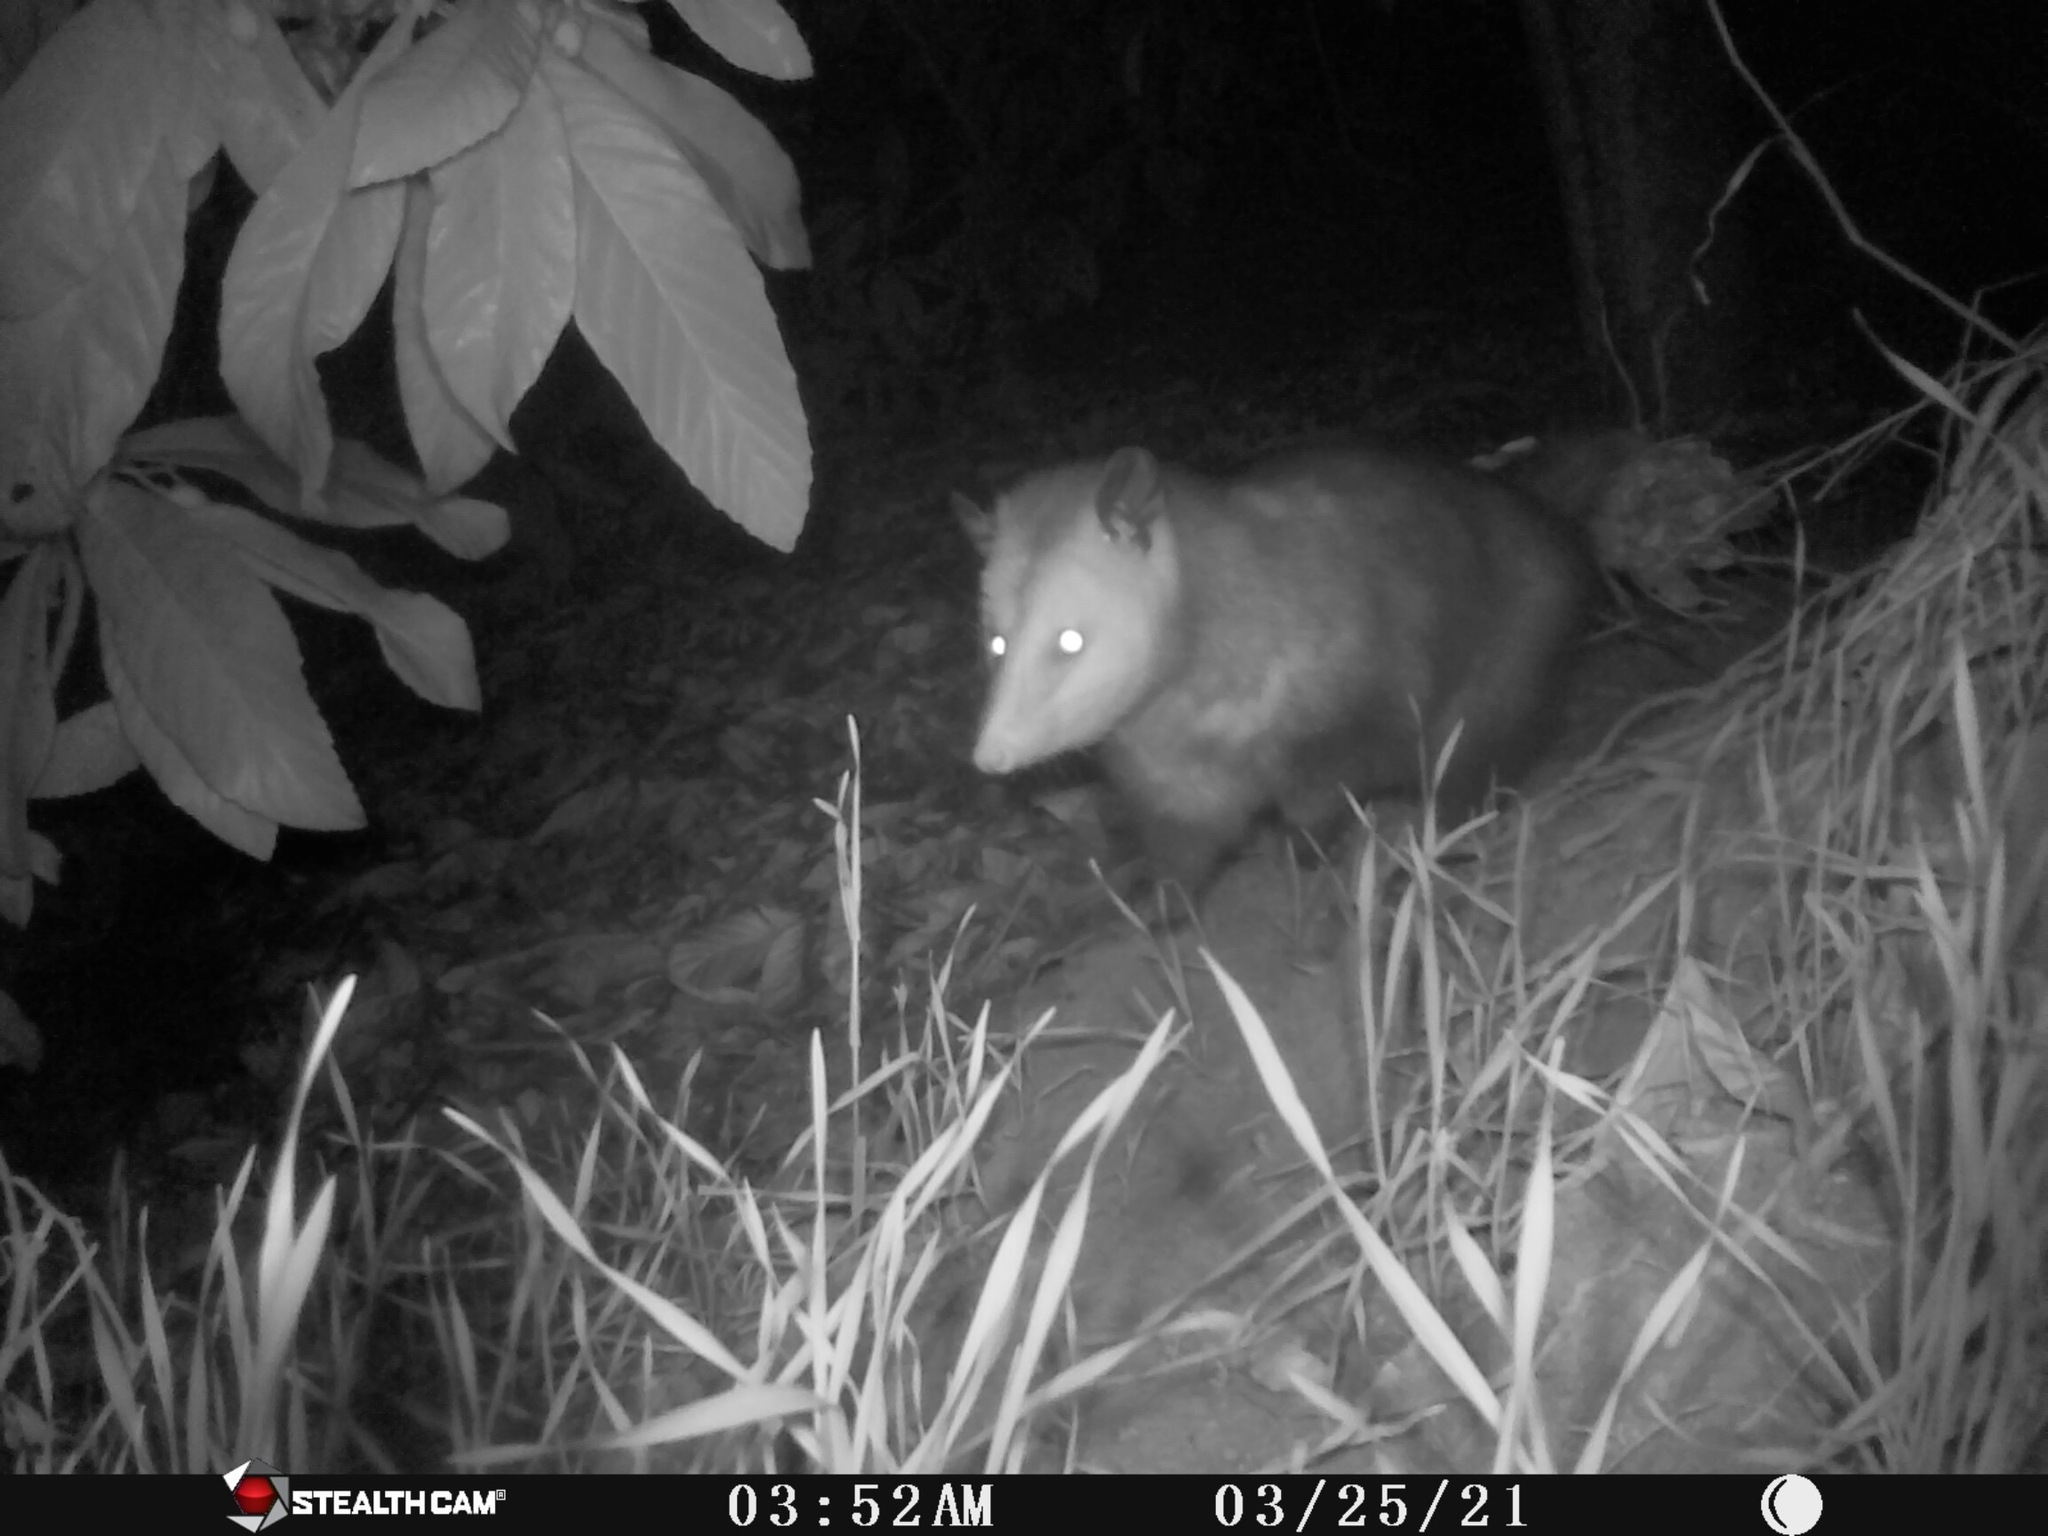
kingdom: Animalia
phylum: Chordata
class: Mammalia
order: Didelphimorphia
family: Didelphidae
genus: Didelphis
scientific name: Didelphis virginiana
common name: Virginia opossum
